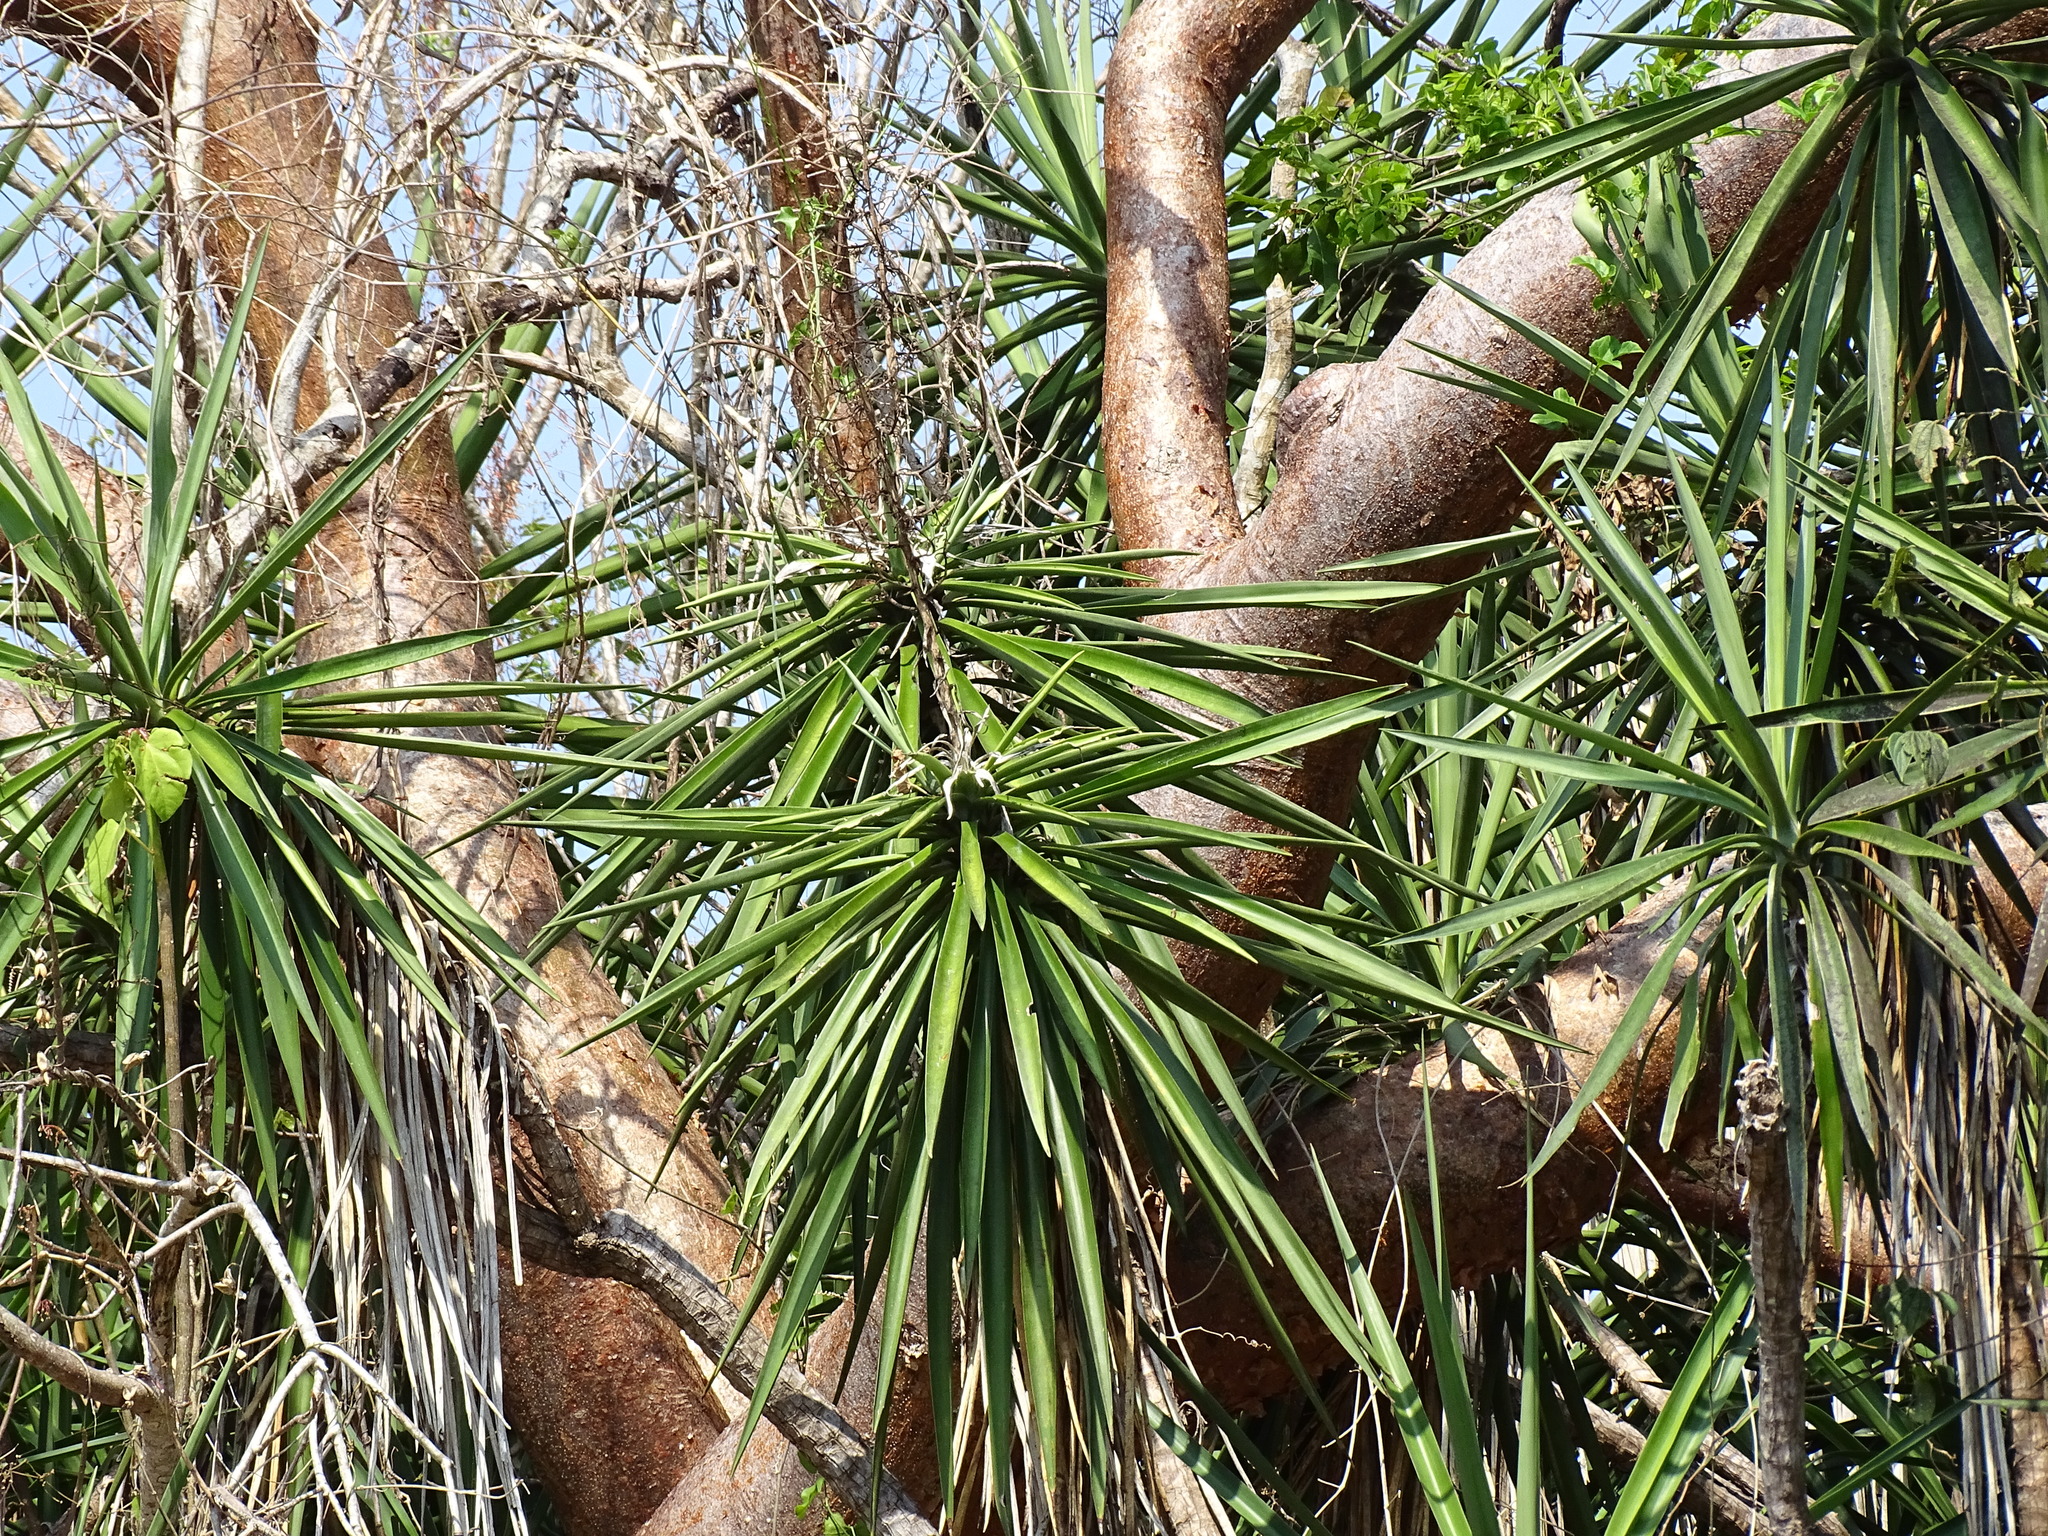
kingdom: Plantae
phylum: Tracheophyta
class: Liliopsida
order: Asparagales
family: Asparagaceae
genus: Yucca
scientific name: Yucca aloifolia
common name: Aloe yucca
